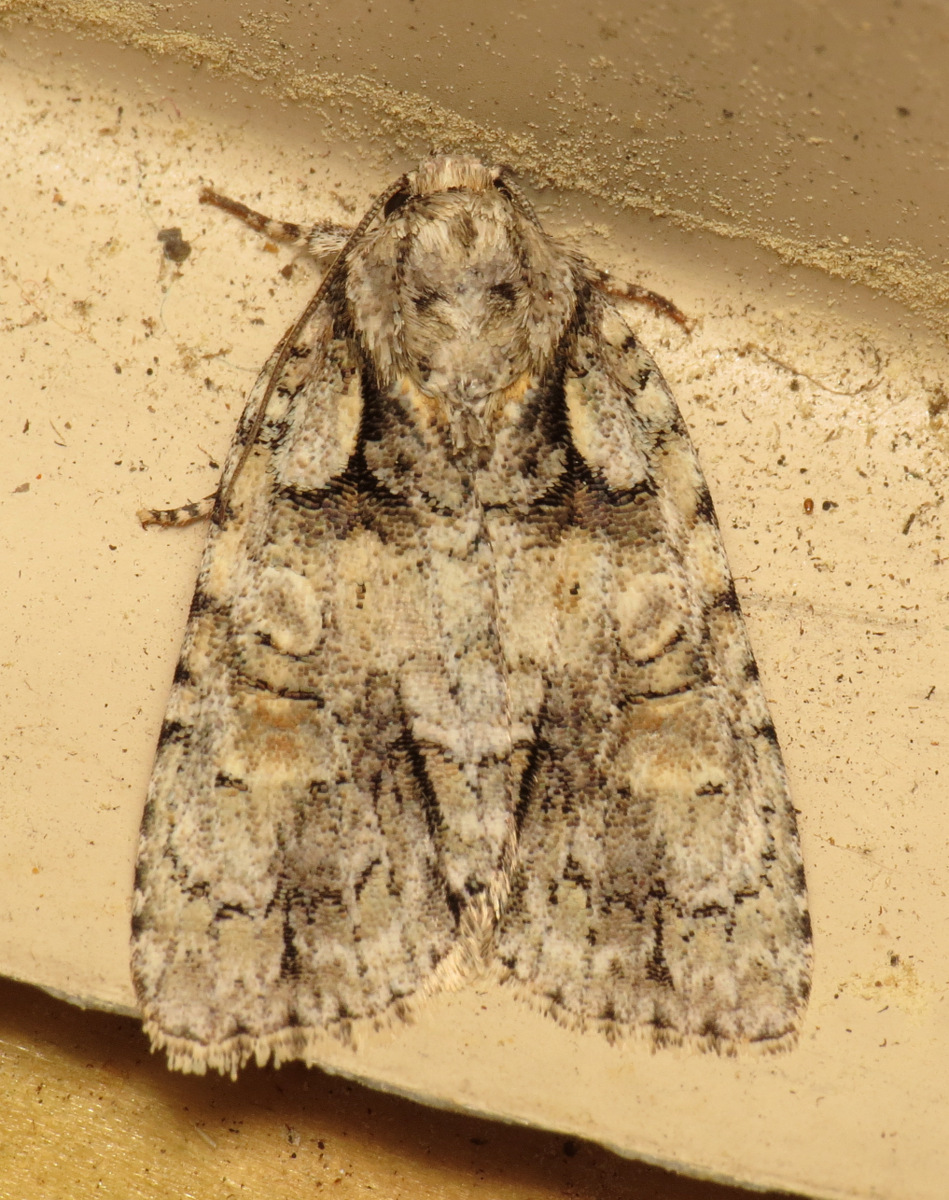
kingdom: Animalia
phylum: Arthropoda
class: Insecta
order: Lepidoptera
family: Noctuidae
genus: Acronicta
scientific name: Acronicta ovata
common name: Epauleted oak dagger
